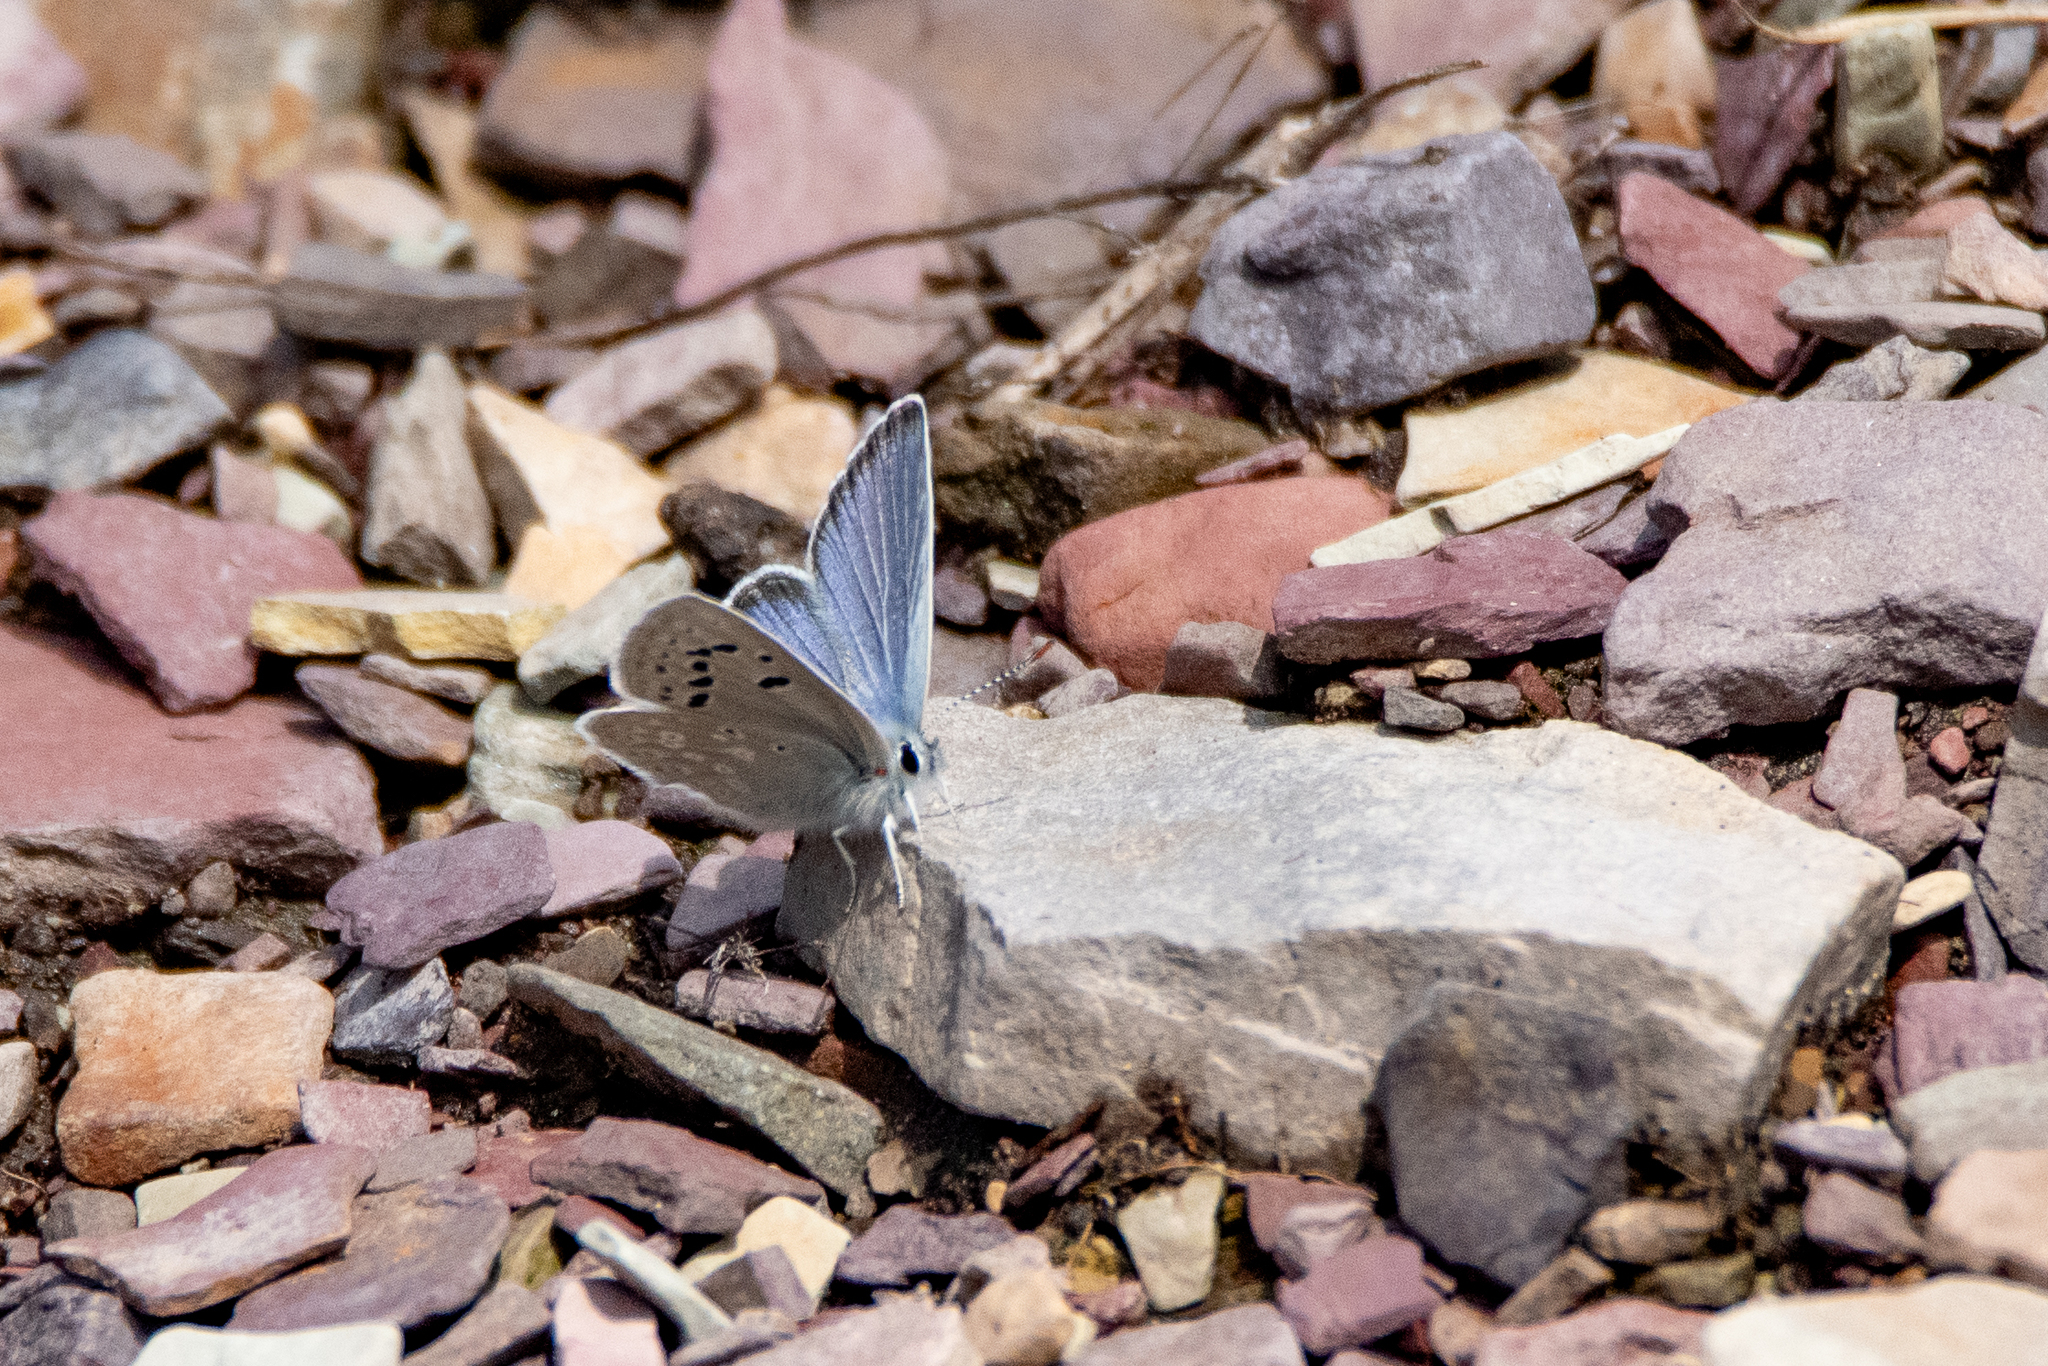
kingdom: Animalia
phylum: Arthropoda
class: Insecta
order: Lepidoptera
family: Lycaenidae
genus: Icaricia
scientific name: Icaricia icarioides
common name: Boisduval's blue
